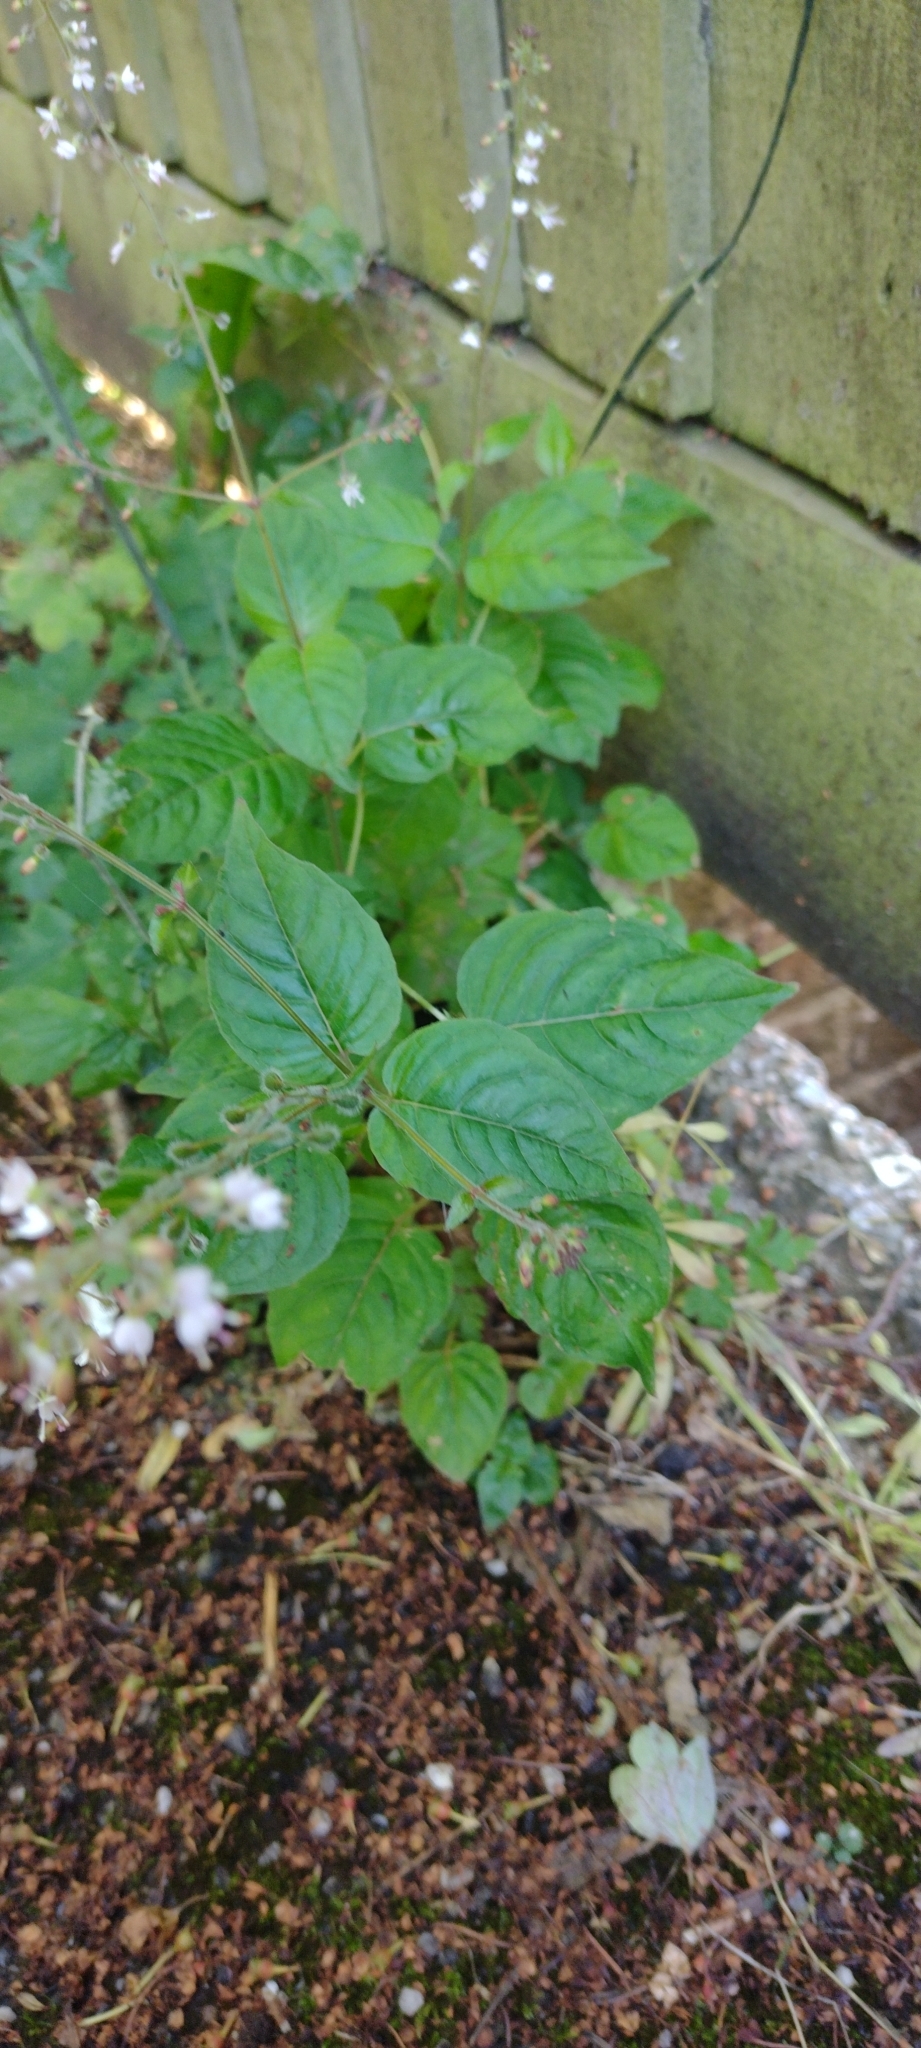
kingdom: Plantae
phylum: Tracheophyta
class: Magnoliopsida
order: Myrtales
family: Onagraceae
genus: Circaea
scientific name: Circaea lutetiana
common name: Enchanter's-nightshade
